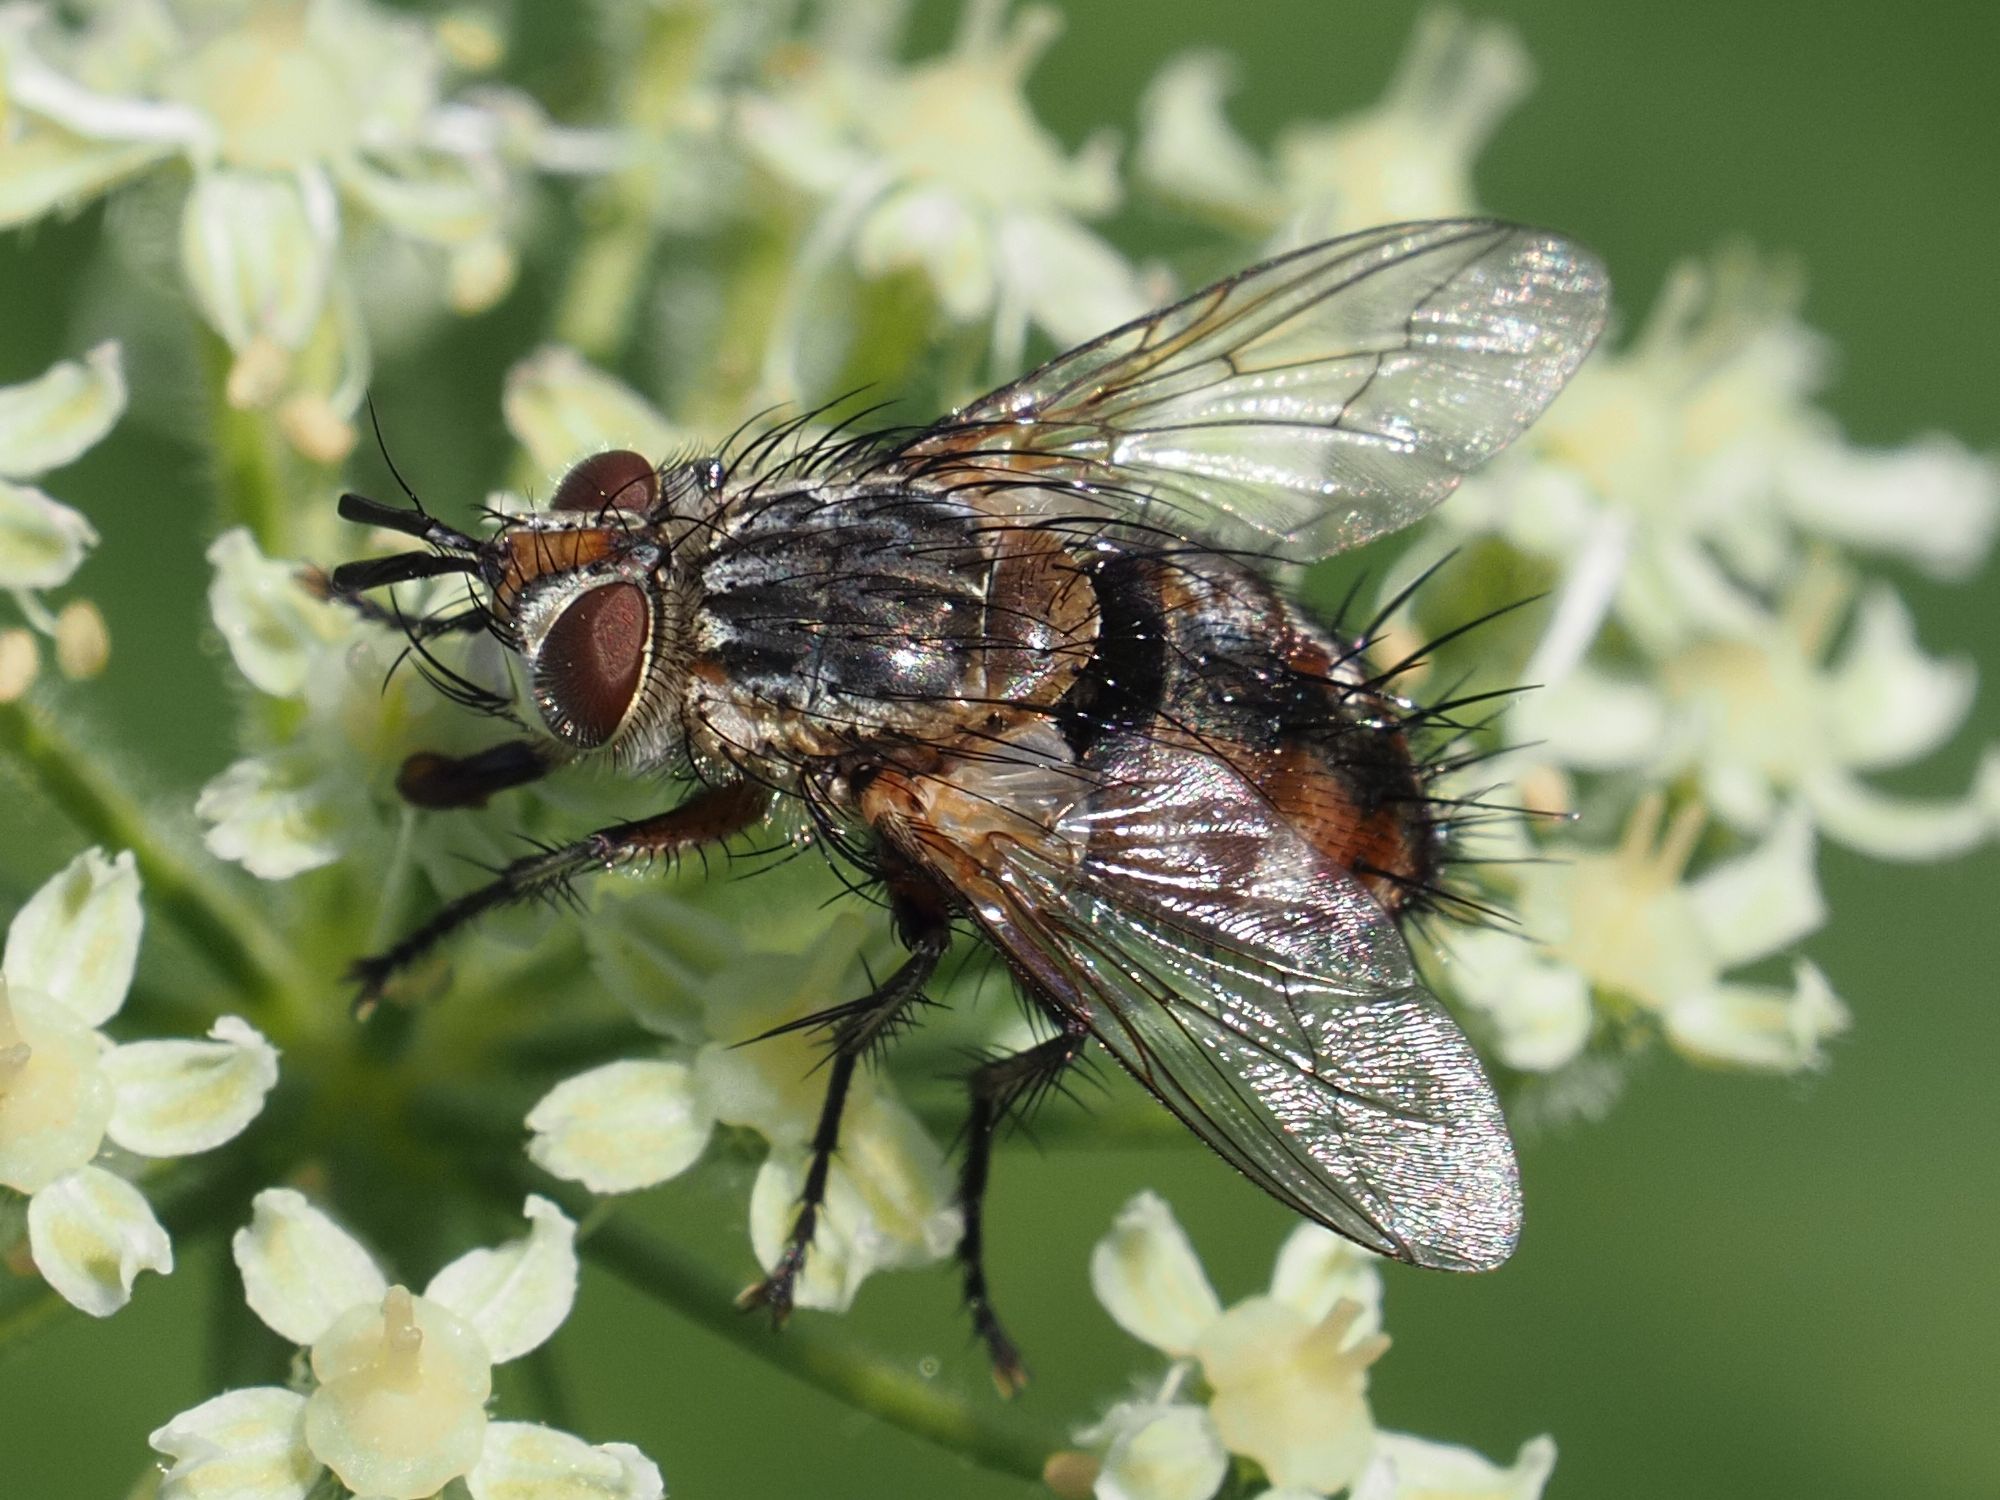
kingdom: Animalia
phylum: Arthropoda
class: Insecta
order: Diptera
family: Tachinidae
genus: Linnaemya
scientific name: Linnaemya vulpina
